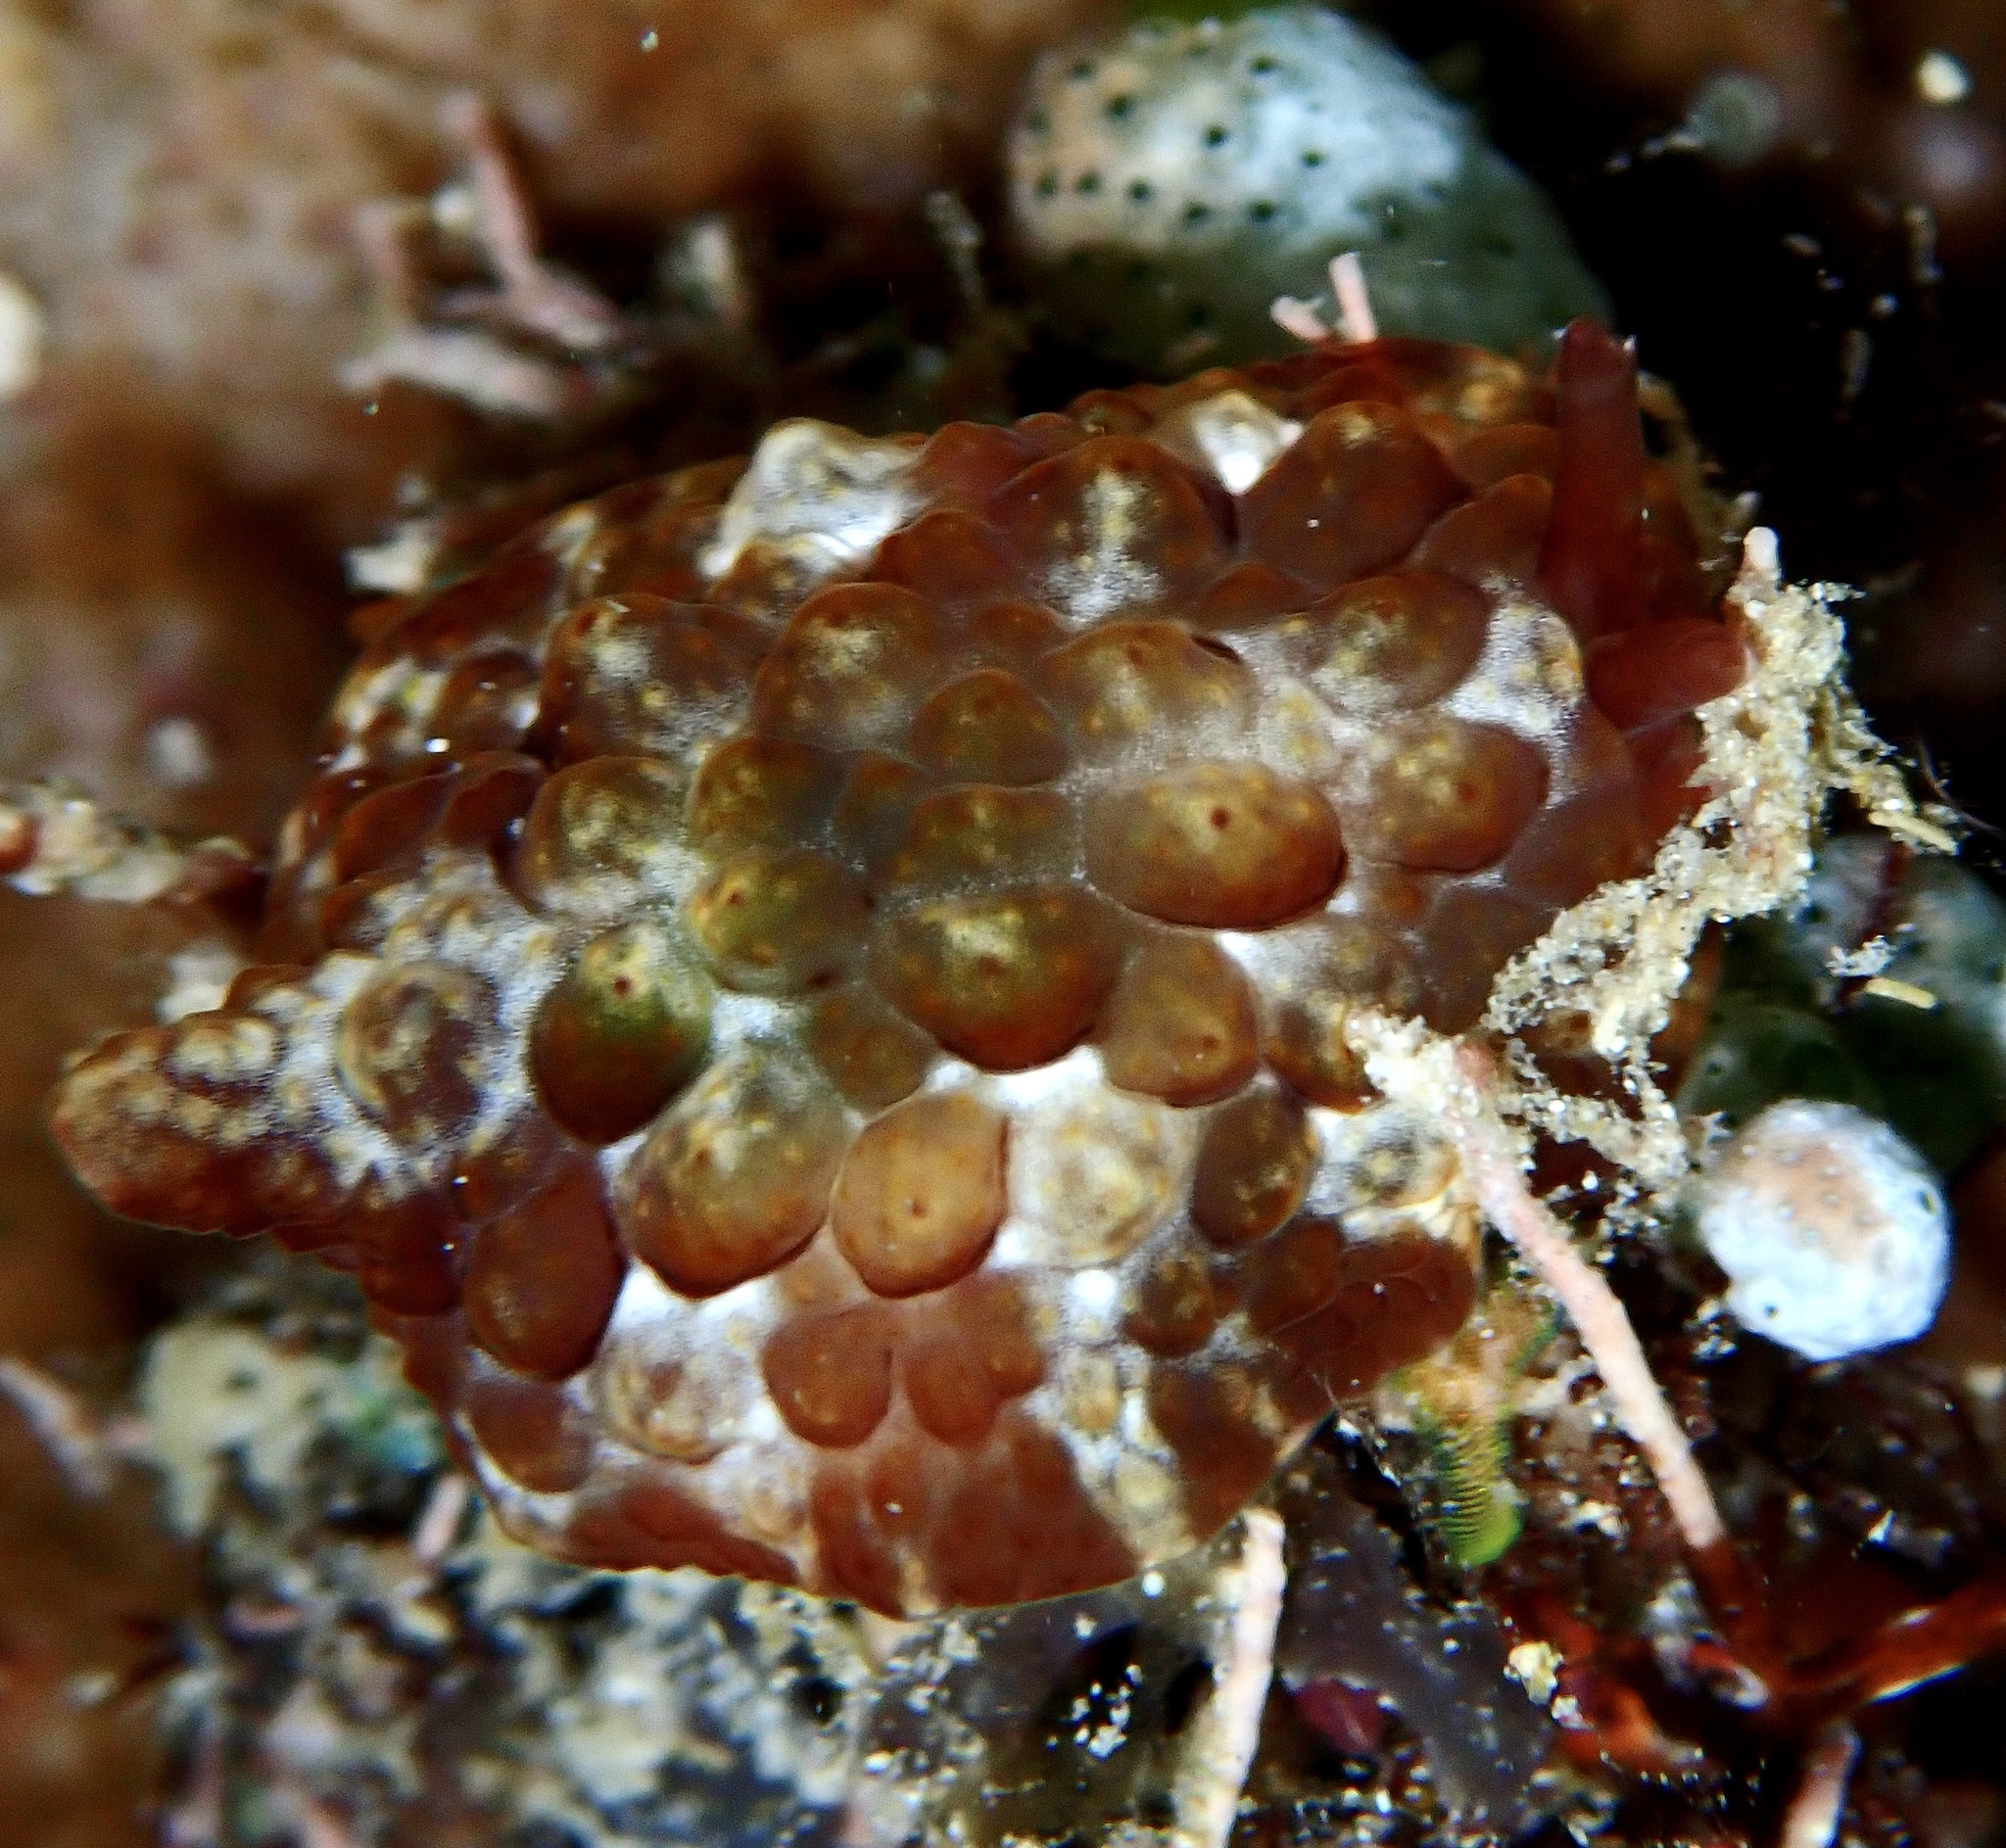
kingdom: Animalia
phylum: Mollusca
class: Gastropoda
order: Pleurobranchida
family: Pleurobranchidae
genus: Pleurobranchus
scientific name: Pleurobranchus forskalii
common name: Forskal's side-gilled sea slug
